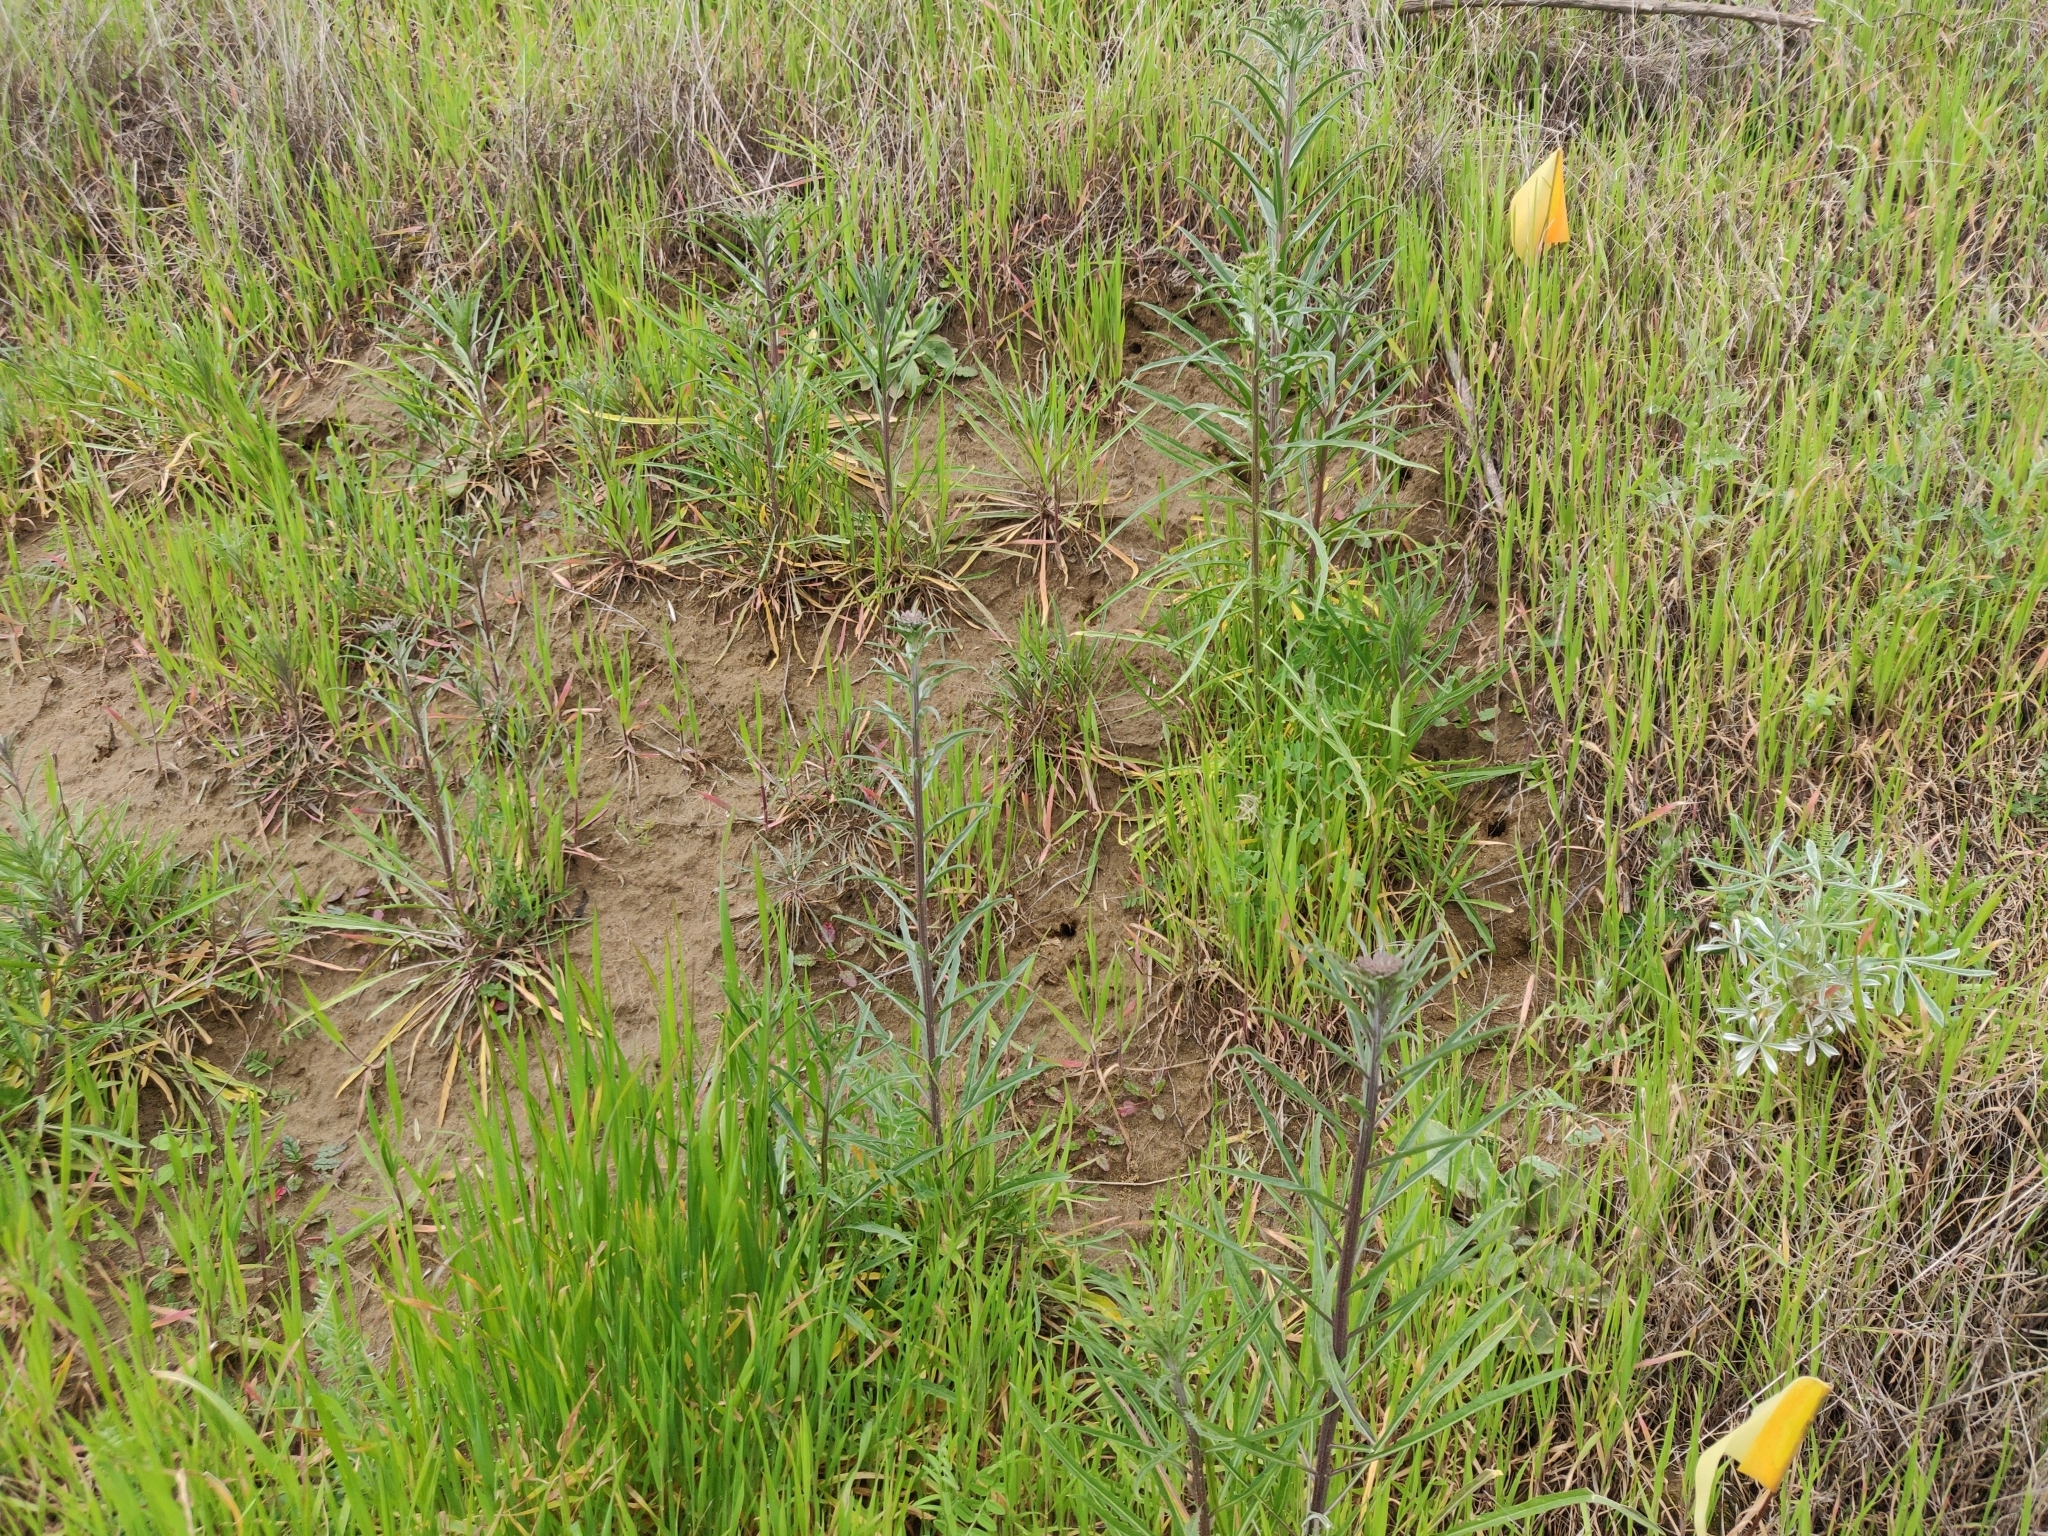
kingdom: Plantae
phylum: Tracheophyta
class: Magnoliopsida
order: Brassicales
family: Brassicaceae
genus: Erysimum
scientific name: Erysimum capitatum
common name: Western wallflower
